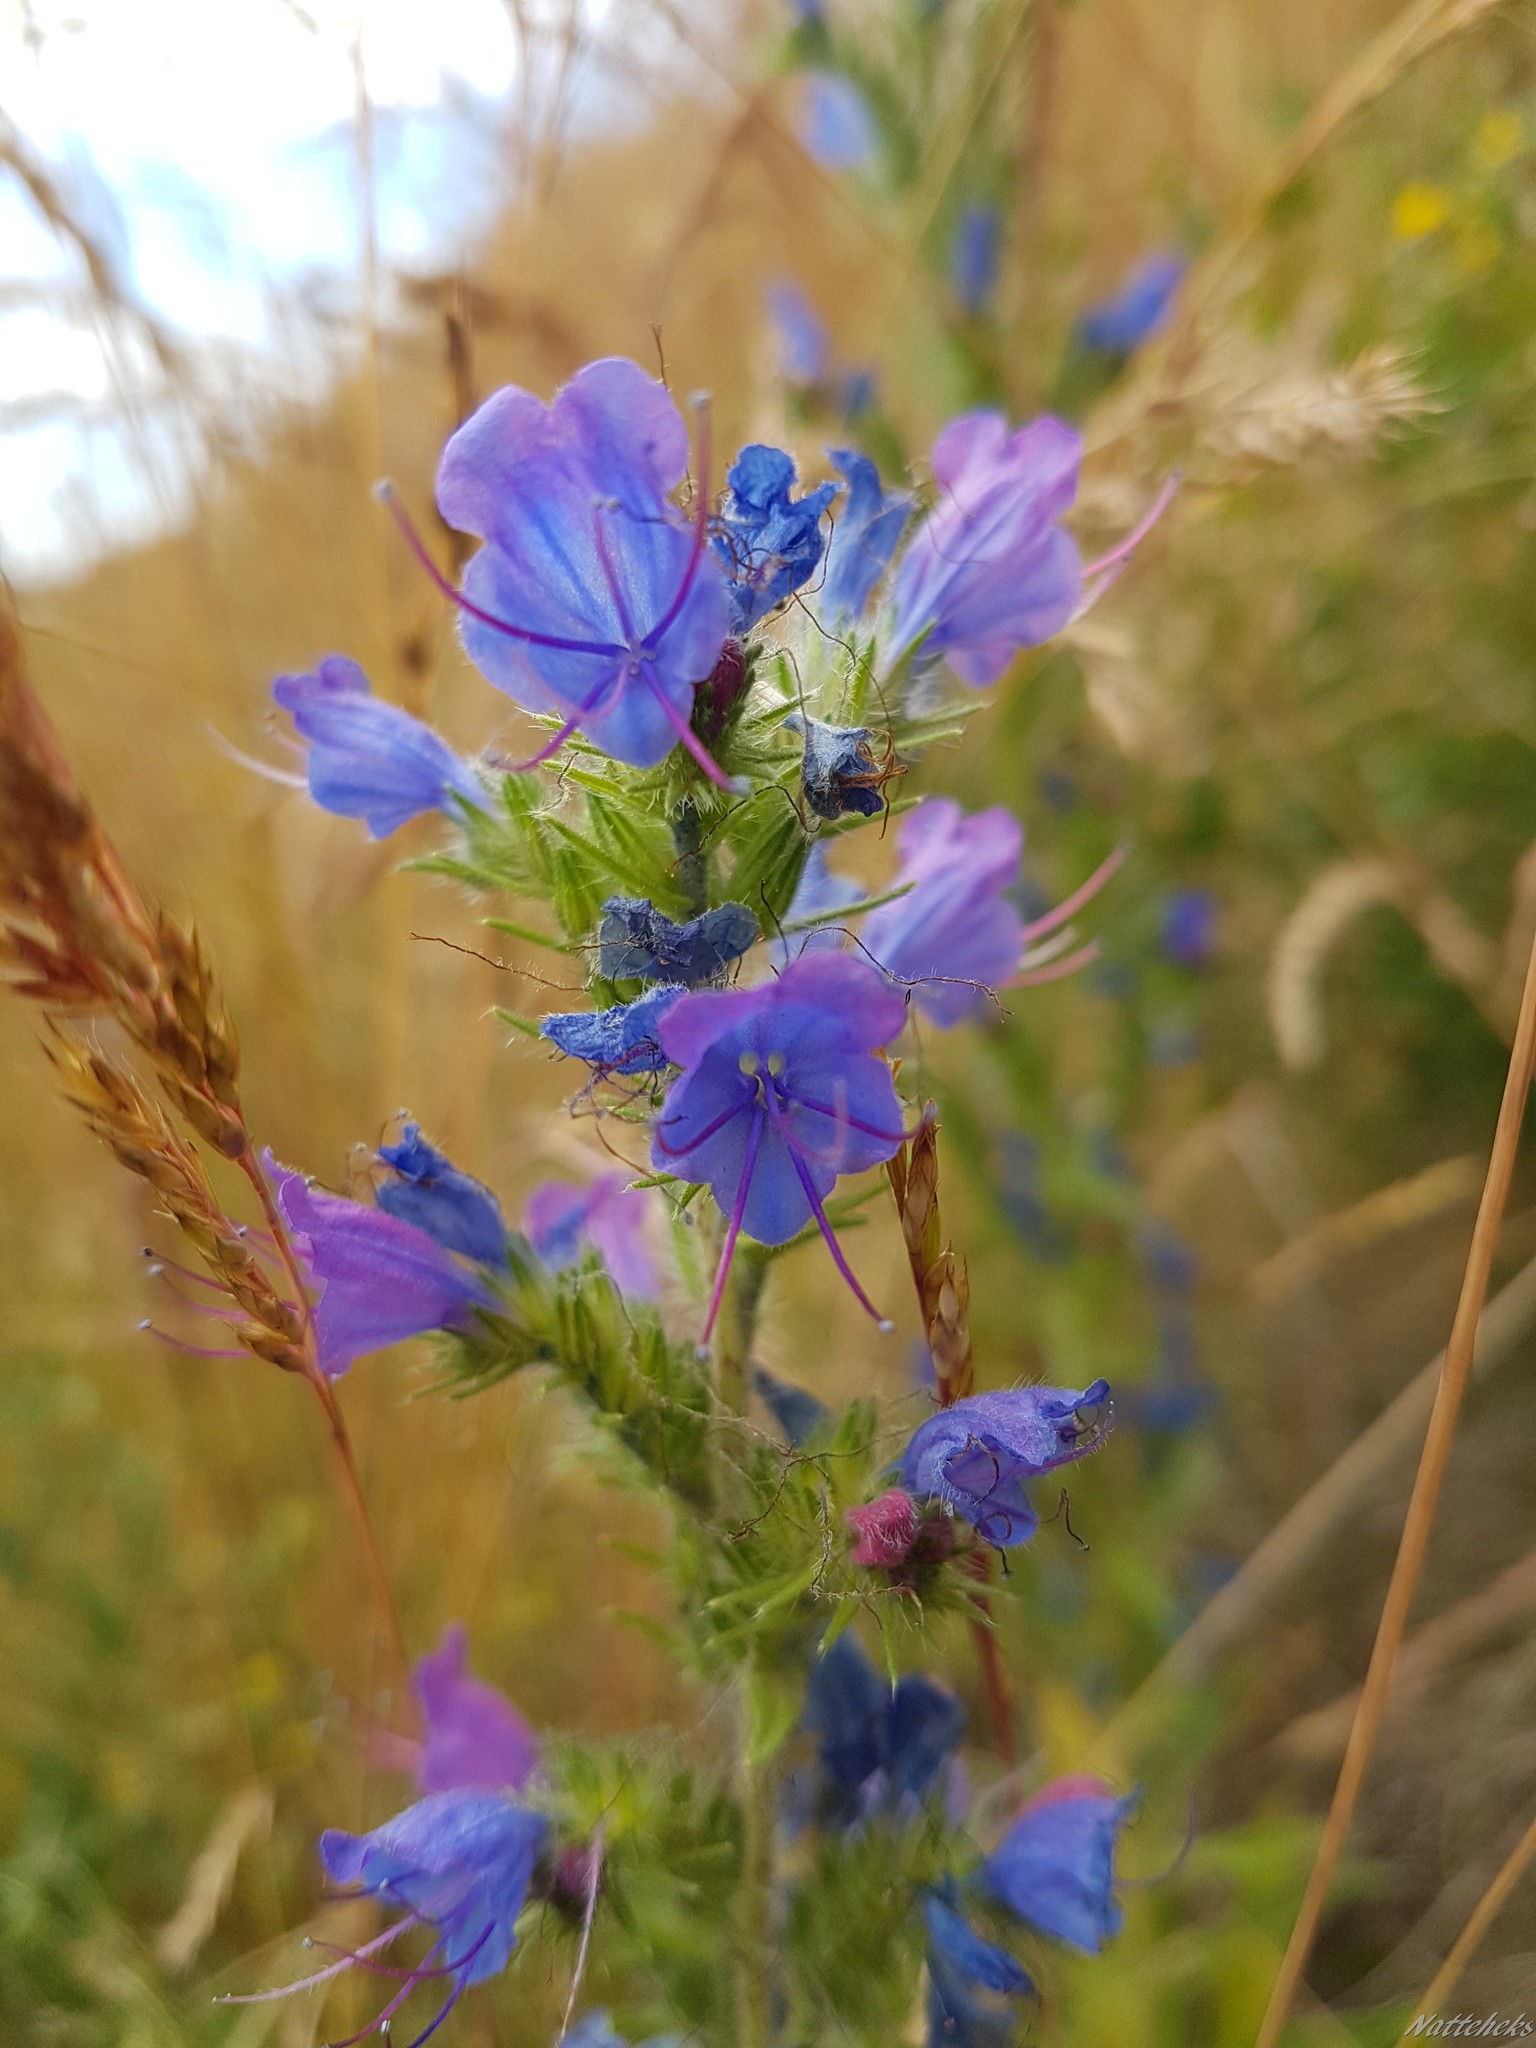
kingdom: Plantae
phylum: Tracheophyta
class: Magnoliopsida
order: Boraginales
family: Boraginaceae
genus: Echium
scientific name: Echium vulgare
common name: Common viper's bugloss
